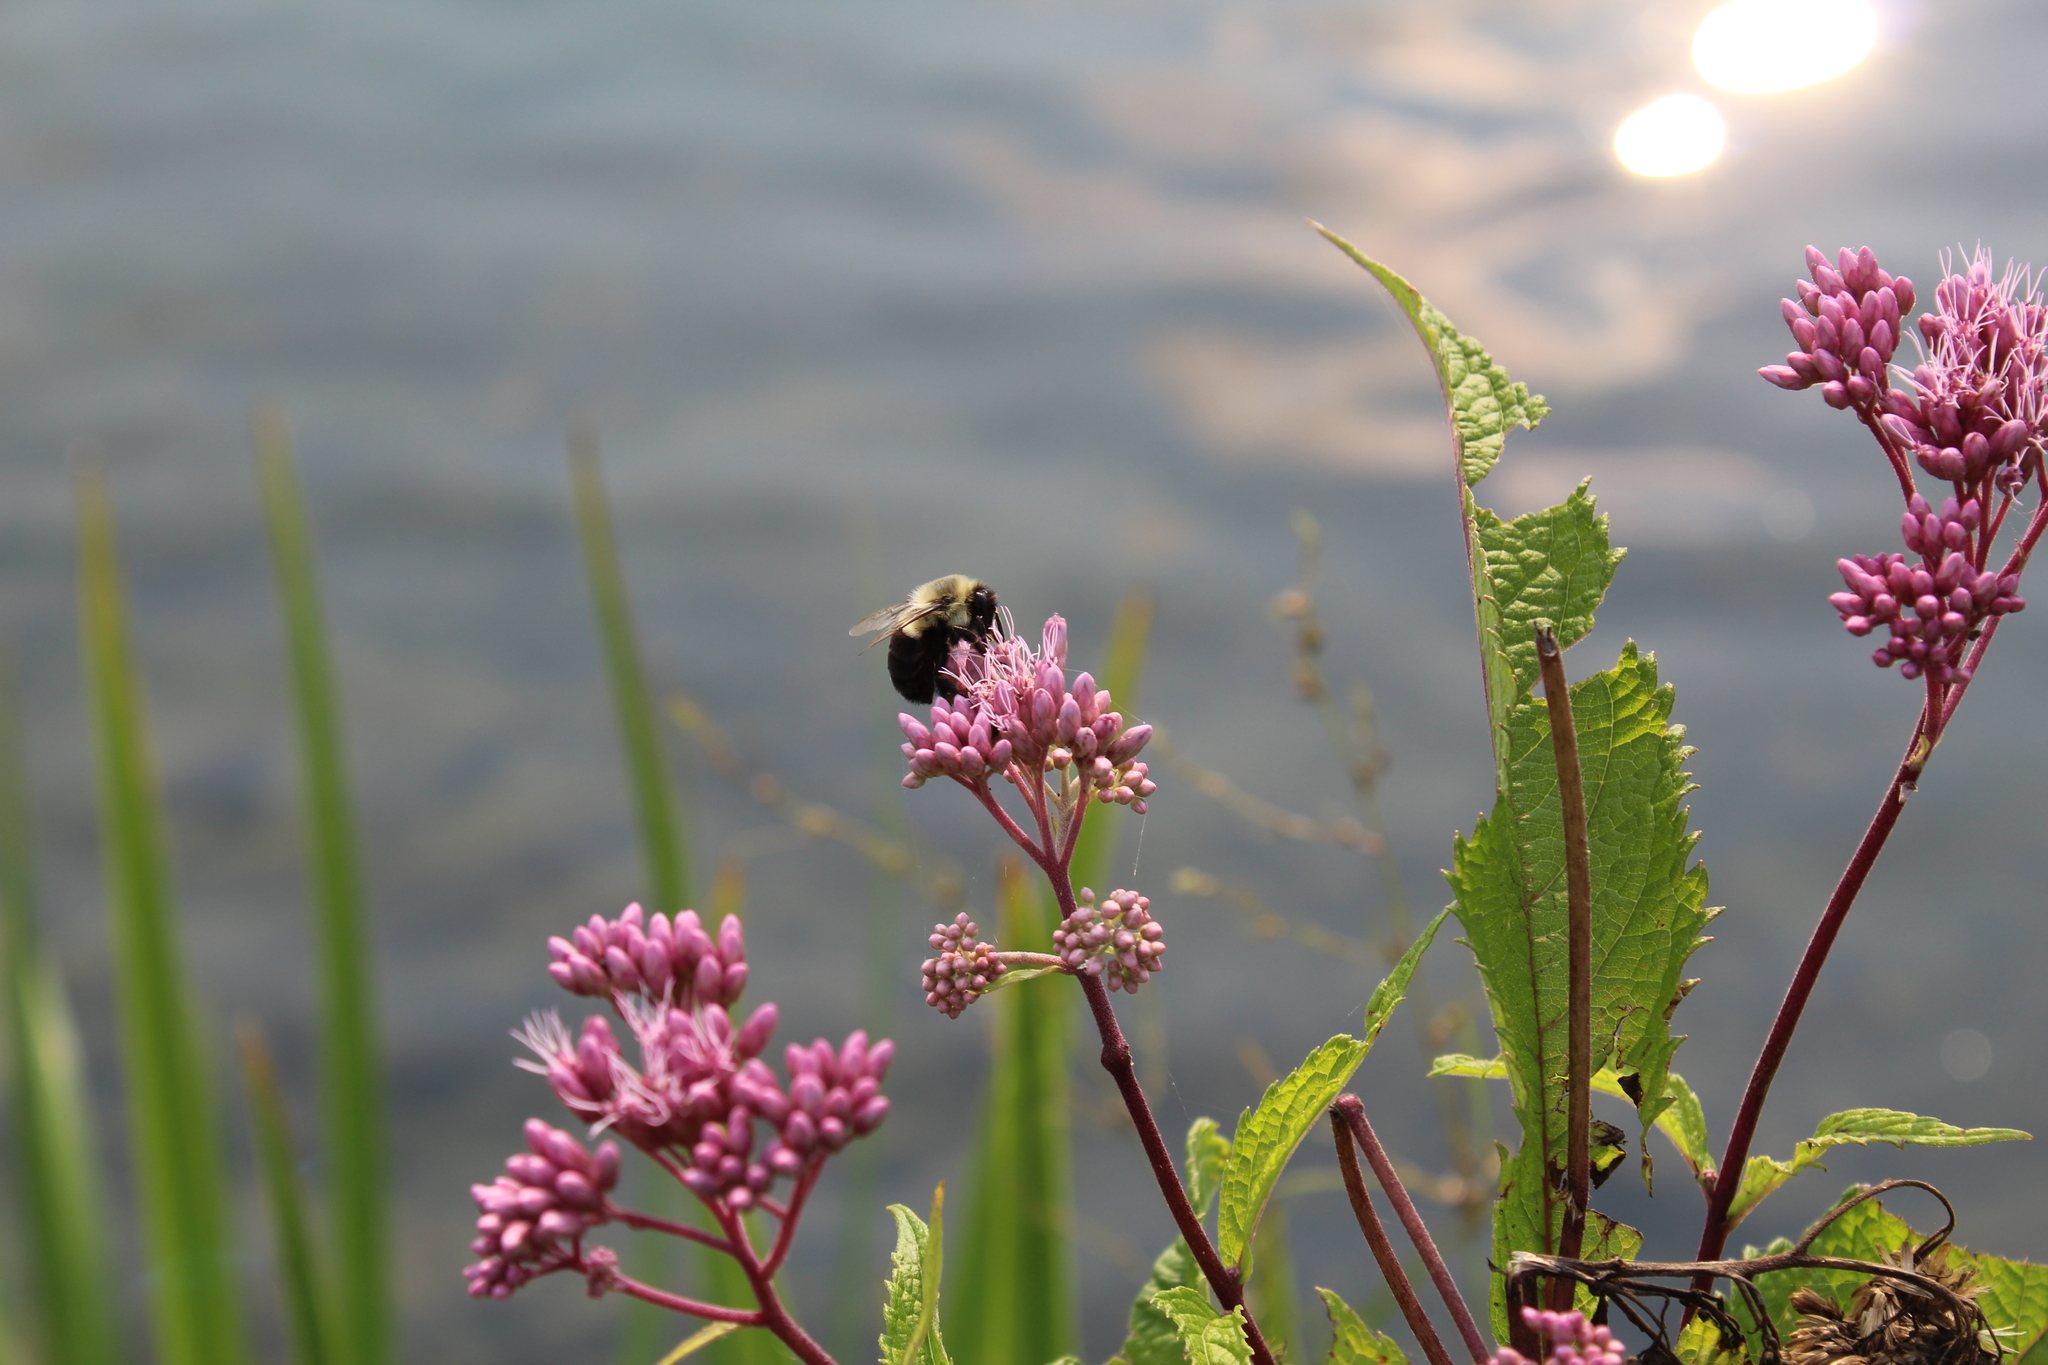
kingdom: Animalia
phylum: Arthropoda
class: Insecta
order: Hymenoptera
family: Apidae
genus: Bombus
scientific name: Bombus impatiens
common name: Common eastern bumble bee
